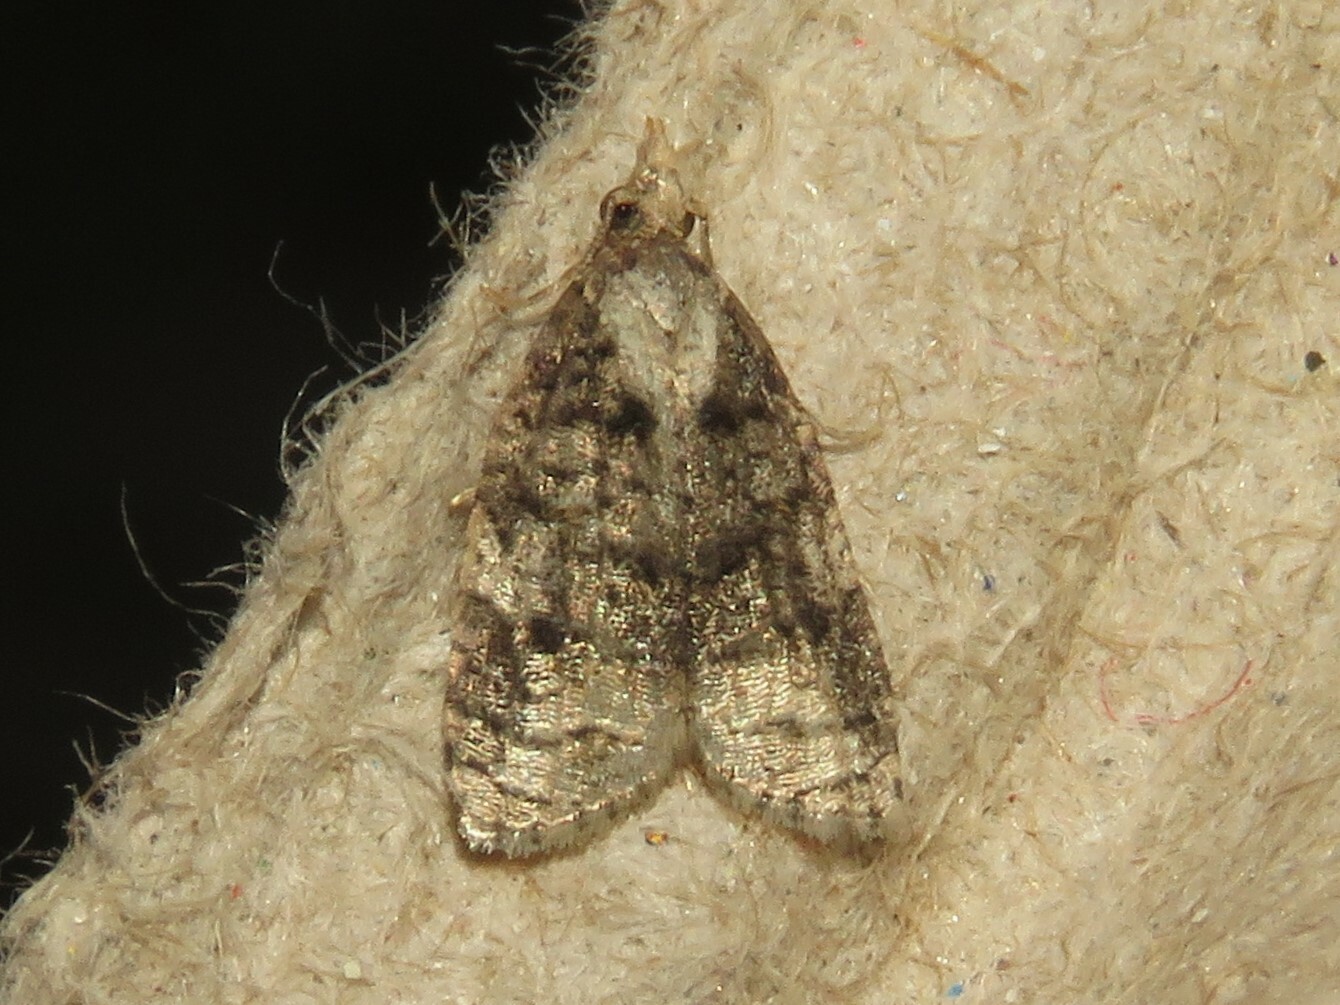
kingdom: Animalia
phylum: Arthropoda
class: Insecta
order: Lepidoptera
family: Tortricidae
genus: Platynota
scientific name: Platynota exasperatana
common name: Exasperating platynota moth
